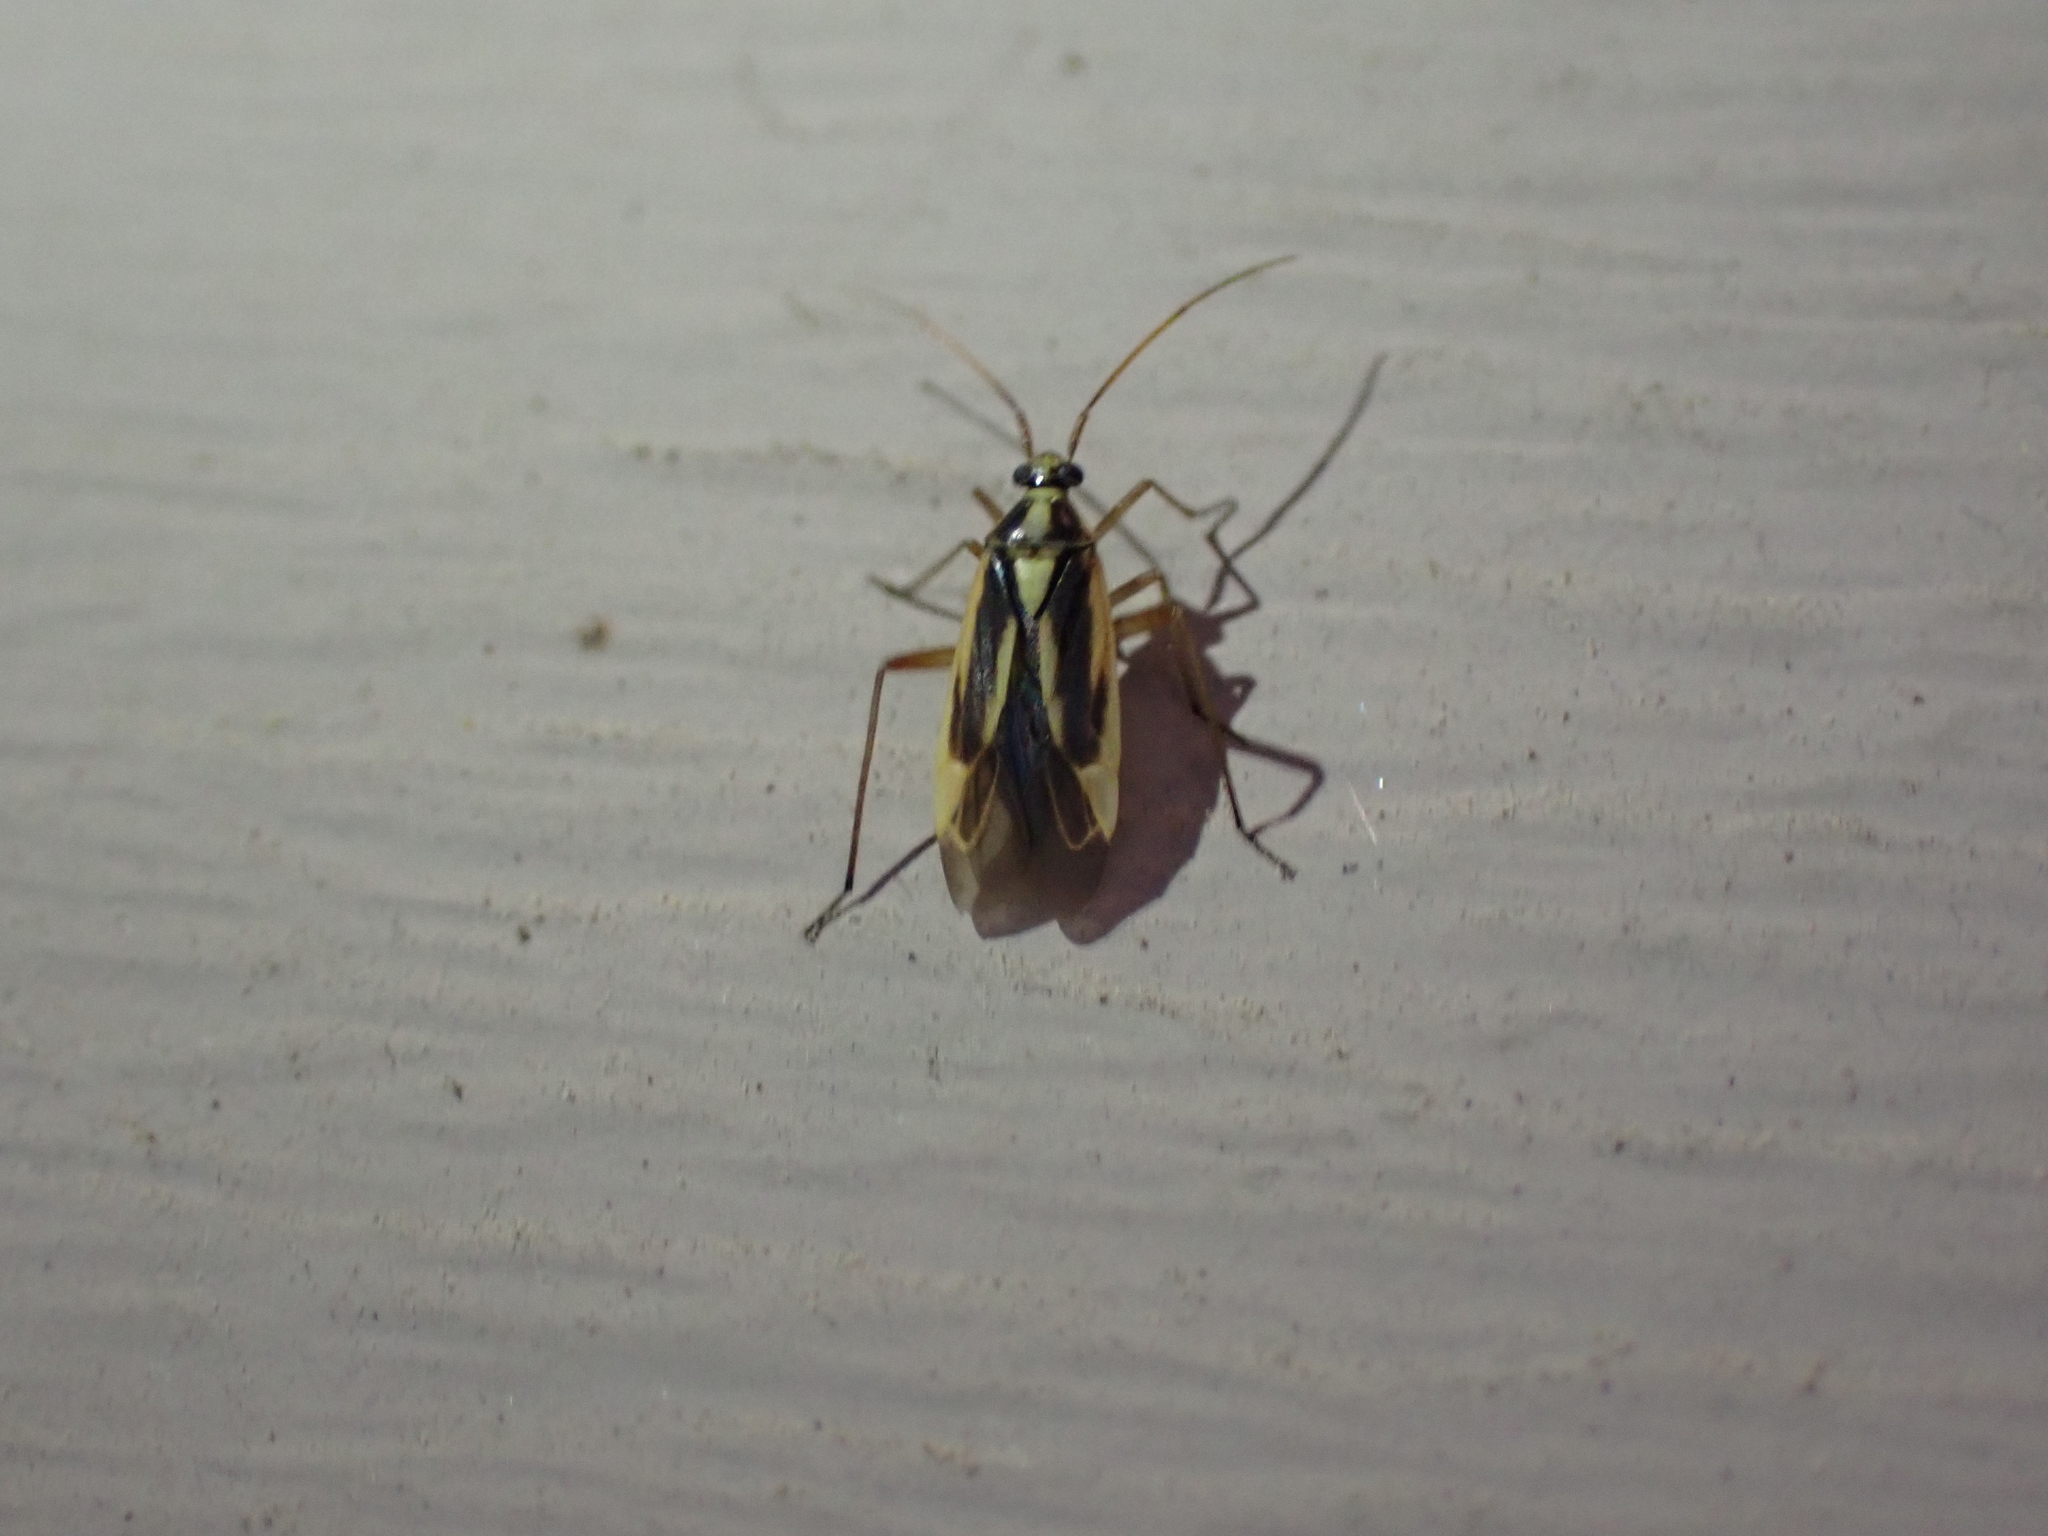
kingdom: Animalia
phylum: Arthropoda
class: Insecta
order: Hemiptera
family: Miridae
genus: Stenotus
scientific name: Stenotus binotatus
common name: Plant bug
